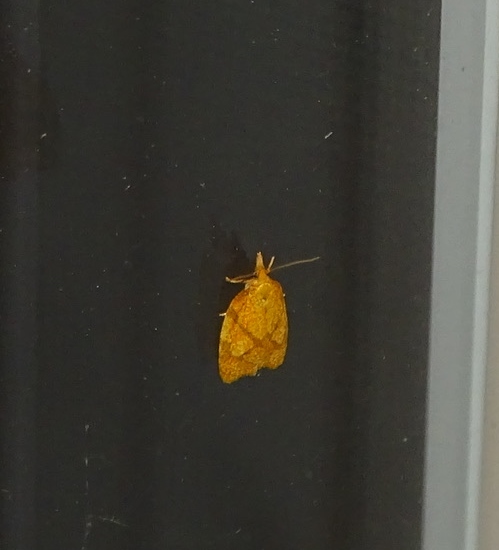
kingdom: Animalia
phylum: Arthropoda
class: Insecta
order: Lepidoptera
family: Tortricidae
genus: Cenopis
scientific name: Cenopis reticulatana
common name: Reticulated fruitworm moth
